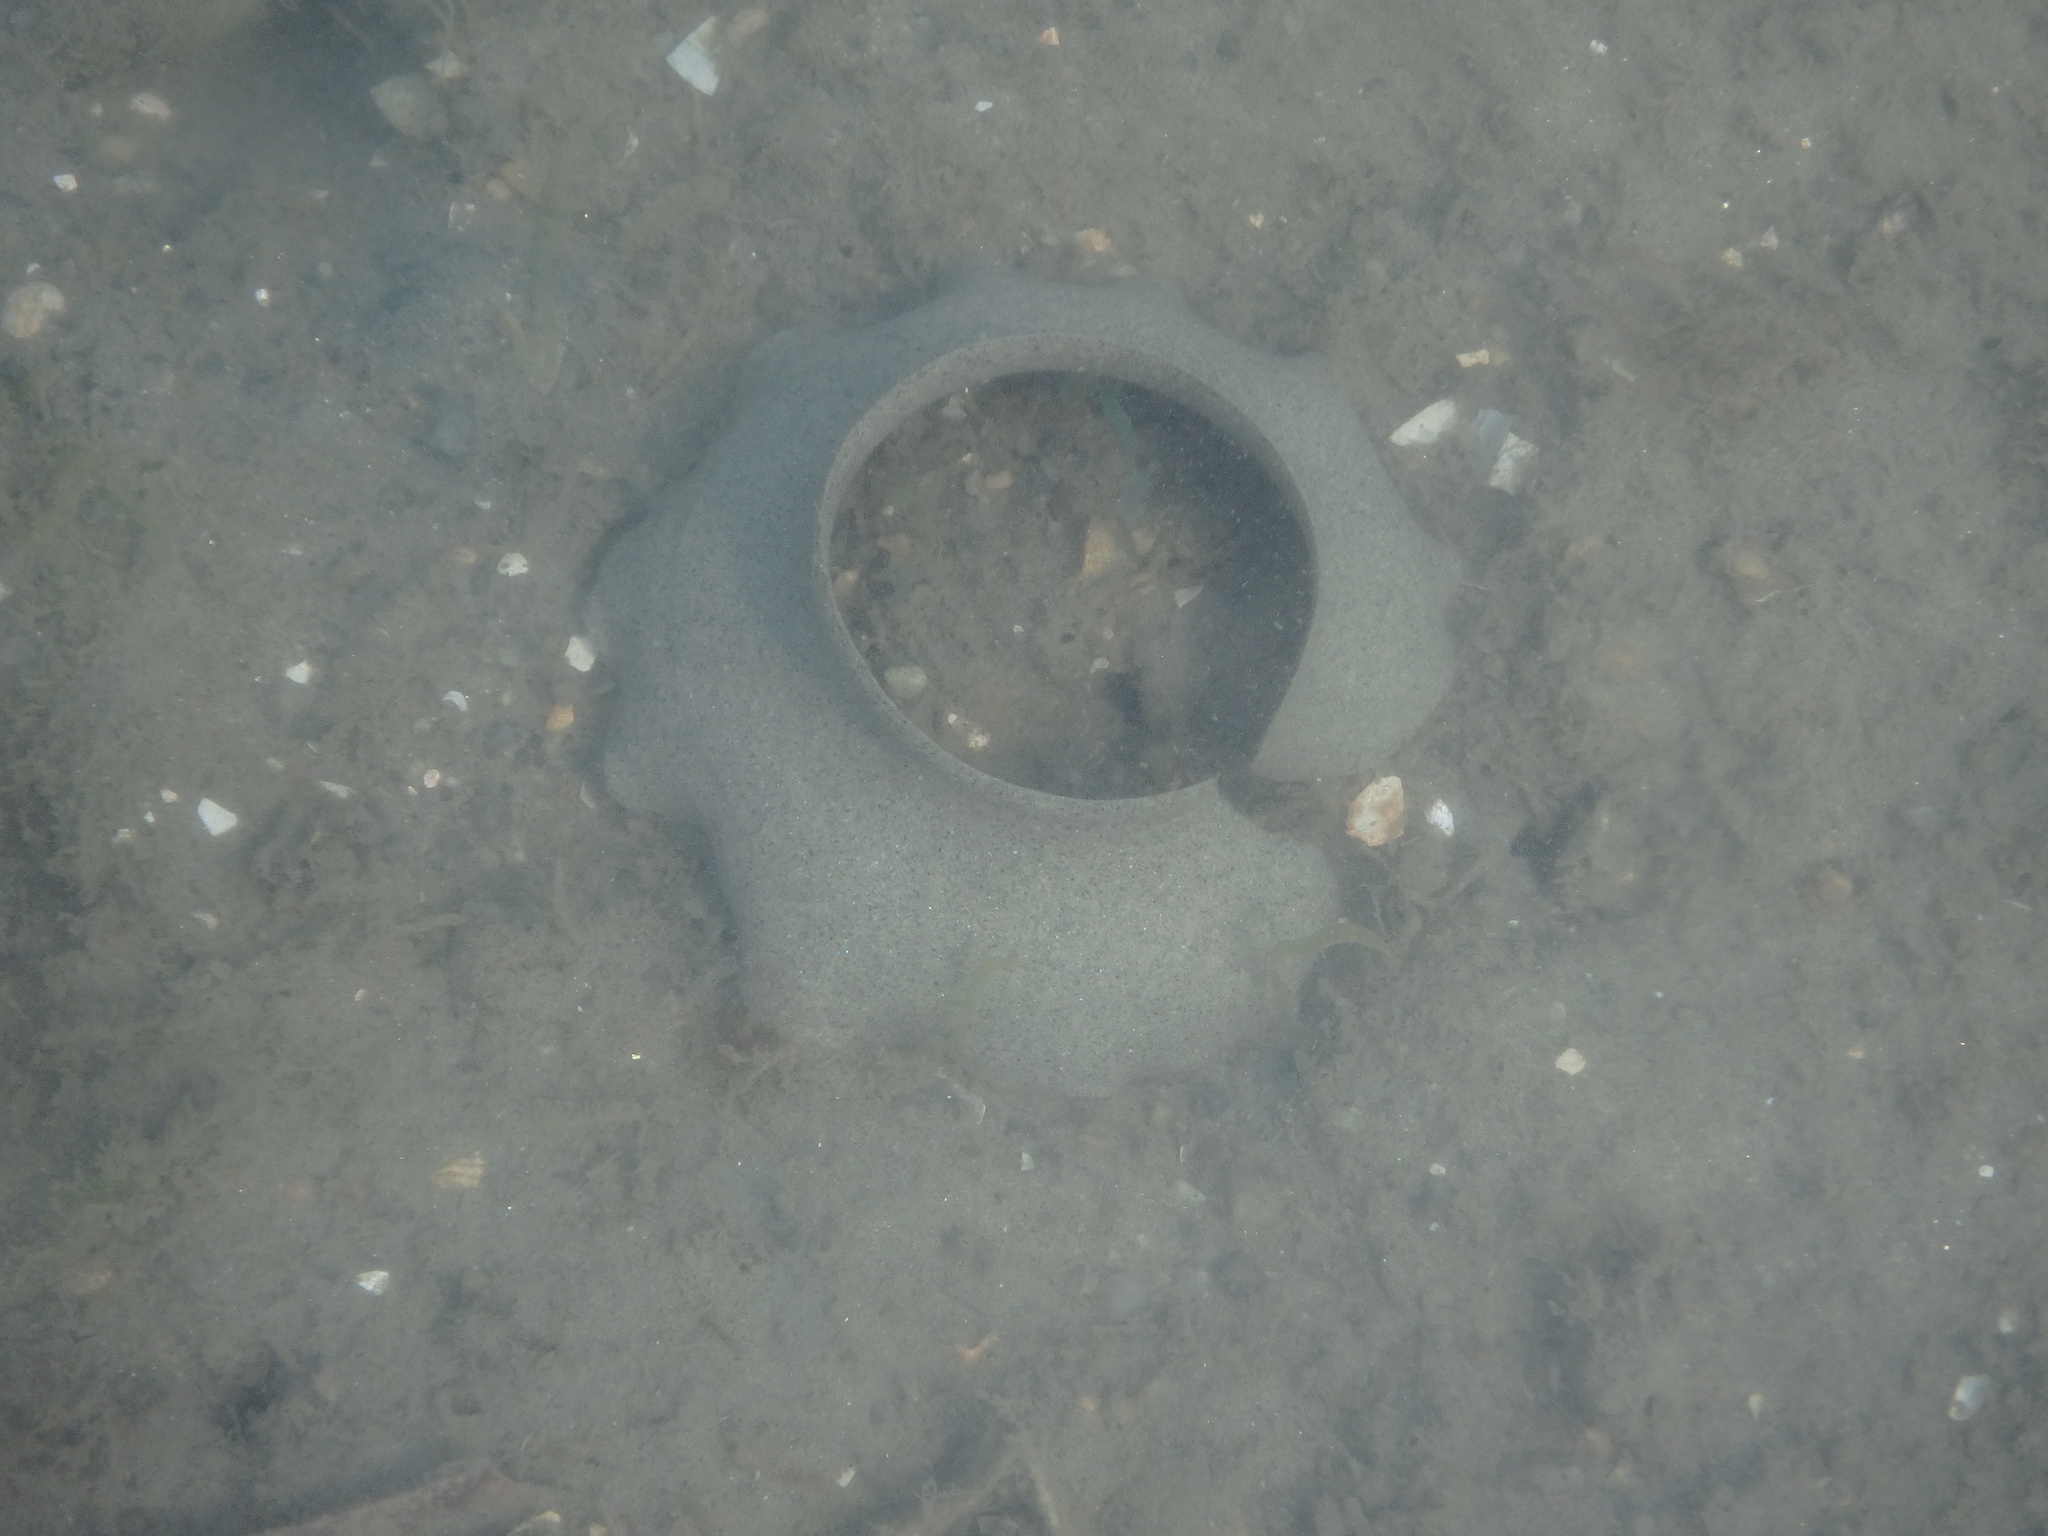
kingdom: Animalia
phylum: Mollusca
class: Gastropoda
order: Littorinimorpha
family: Naticidae
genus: Neverita
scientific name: Neverita didyma
